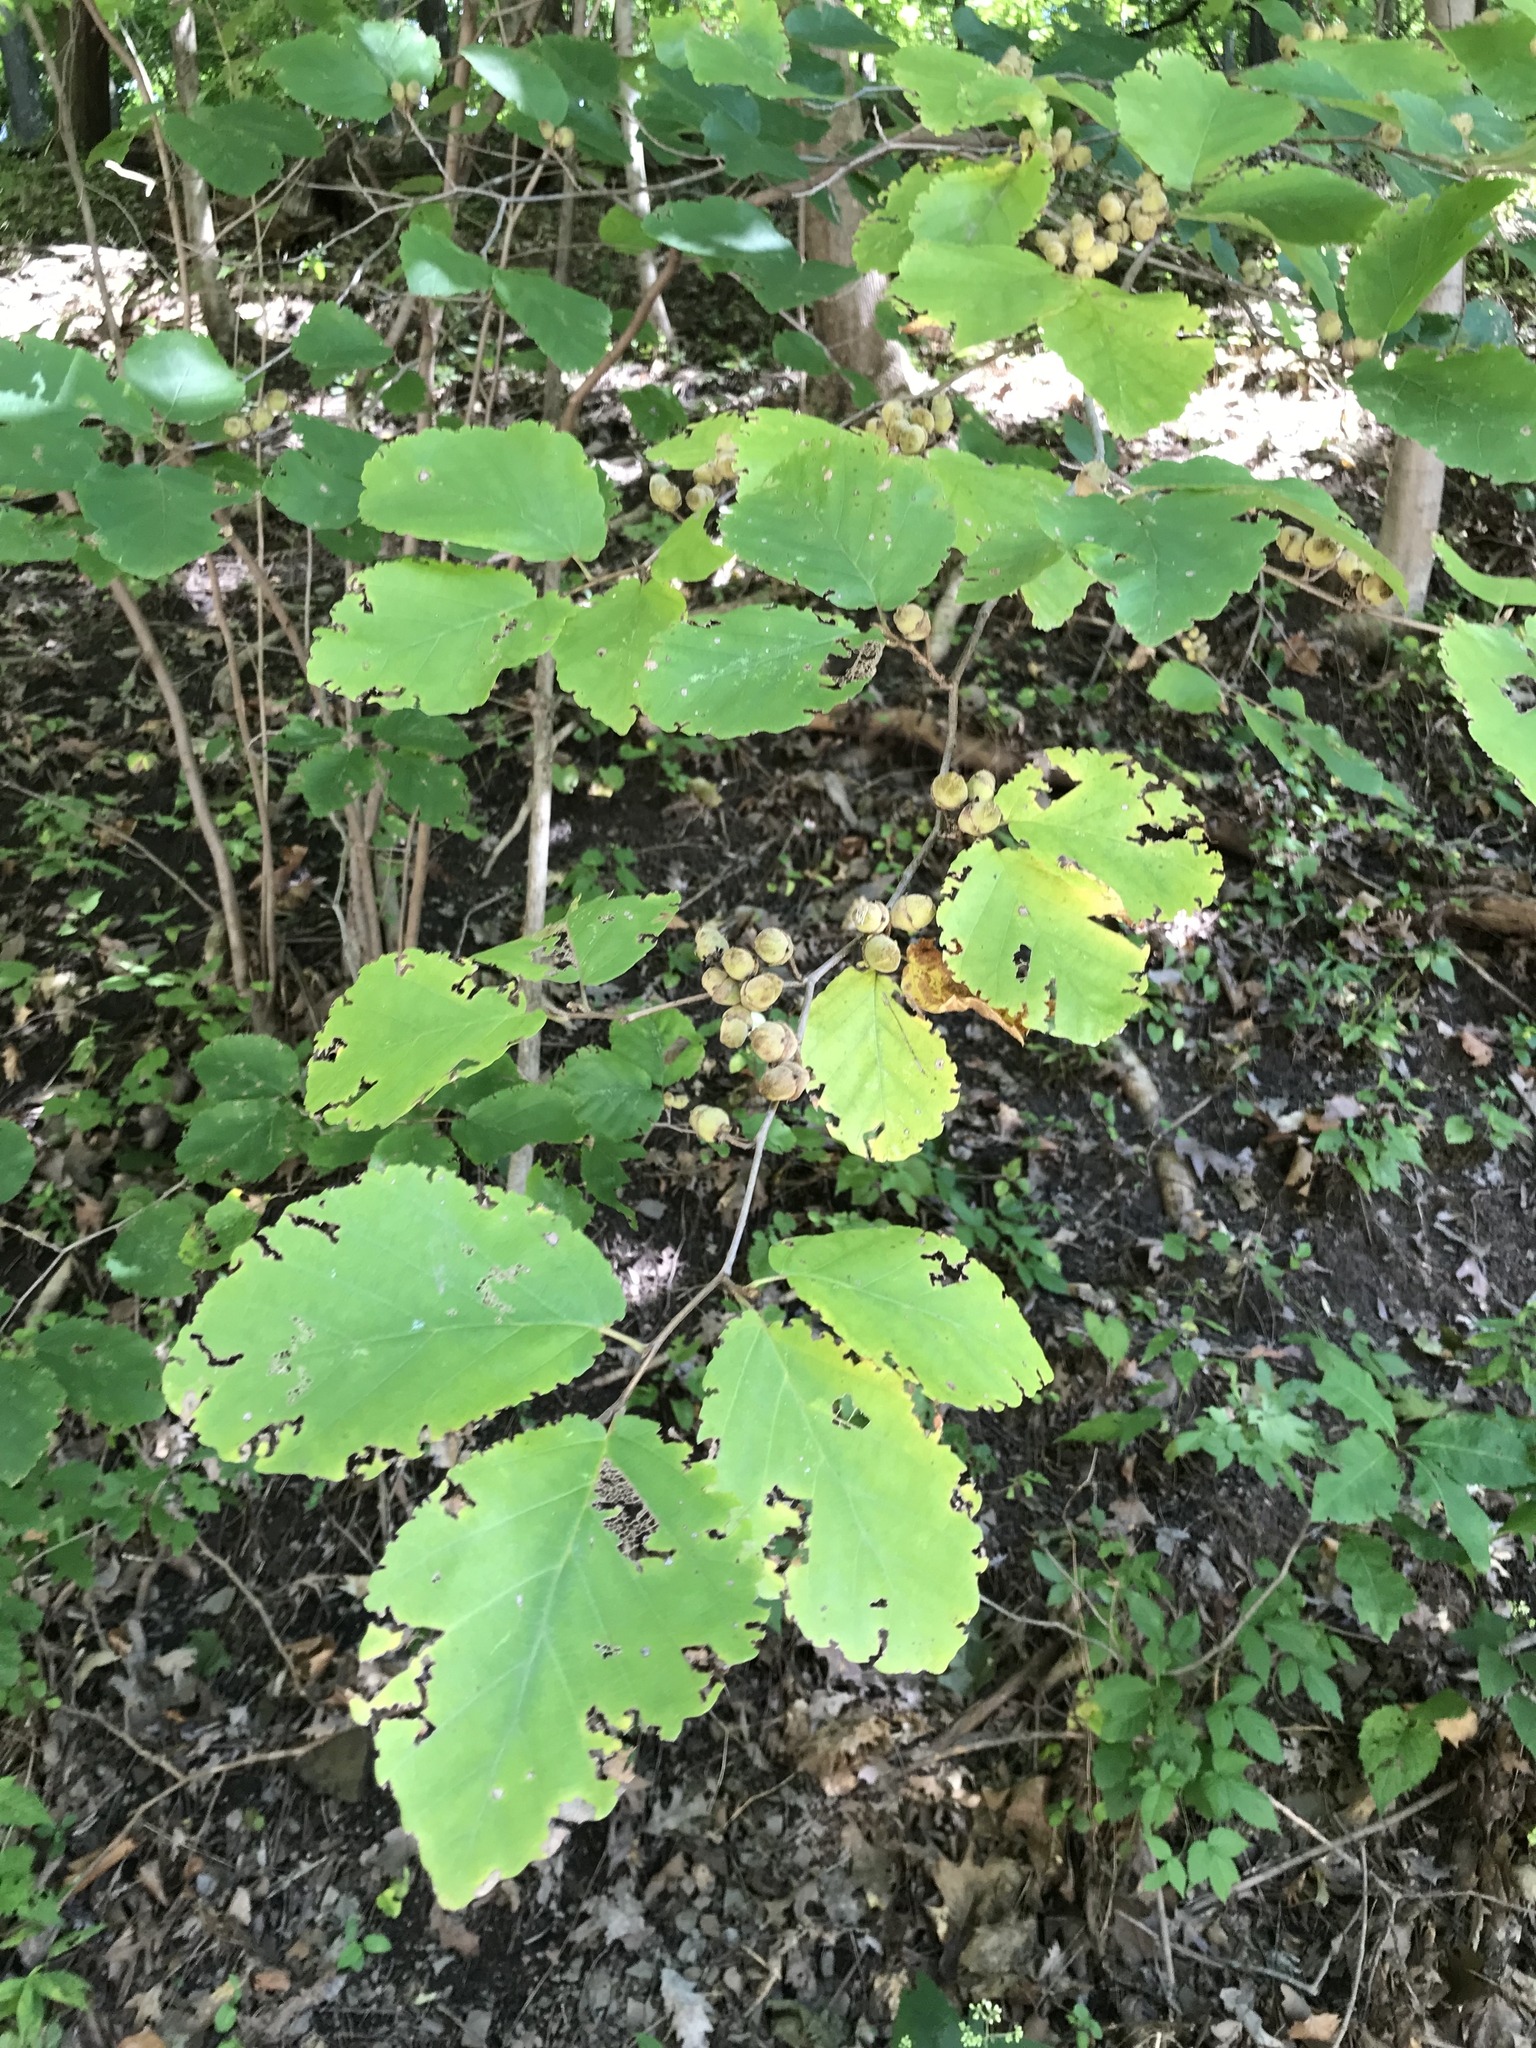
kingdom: Plantae
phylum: Tracheophyta
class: Magnoliopsida
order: Saxifragales
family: Hamamelidaceae
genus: Hamamelis
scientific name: Hamamelis virginiana
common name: Witch-hazel
